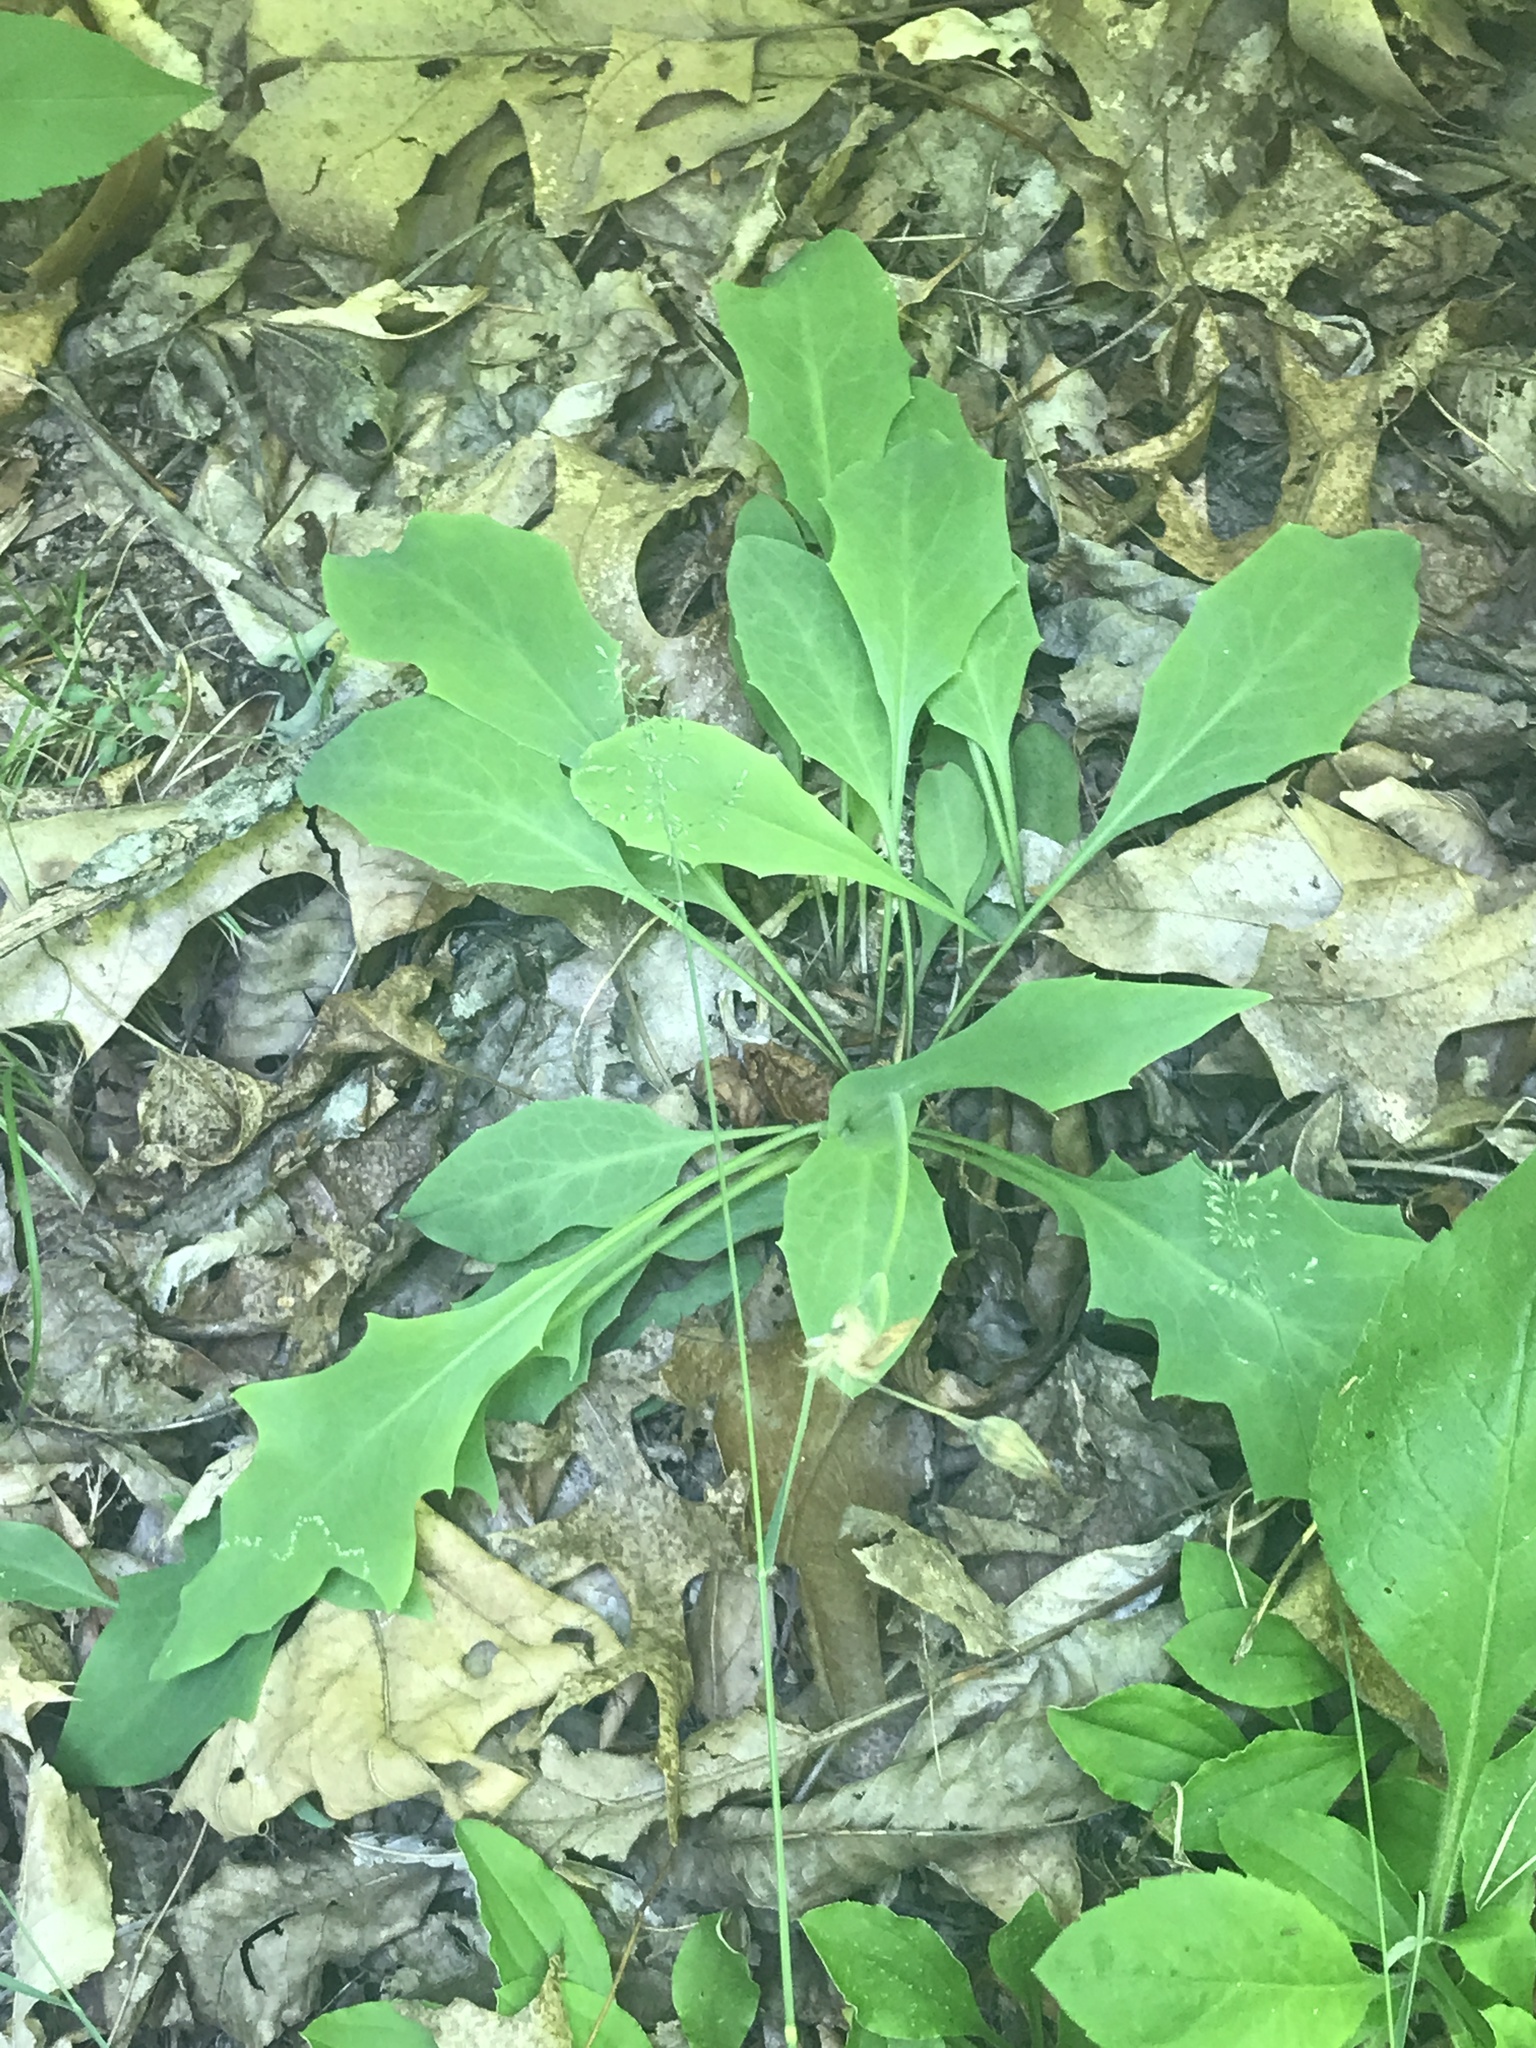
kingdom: Plantae
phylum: Tracheophyta
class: Magnoliopsida
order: Asterales
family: Asteraceae
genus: Krigia
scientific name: Krigia biflora
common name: Orange dwarf-dandelion
